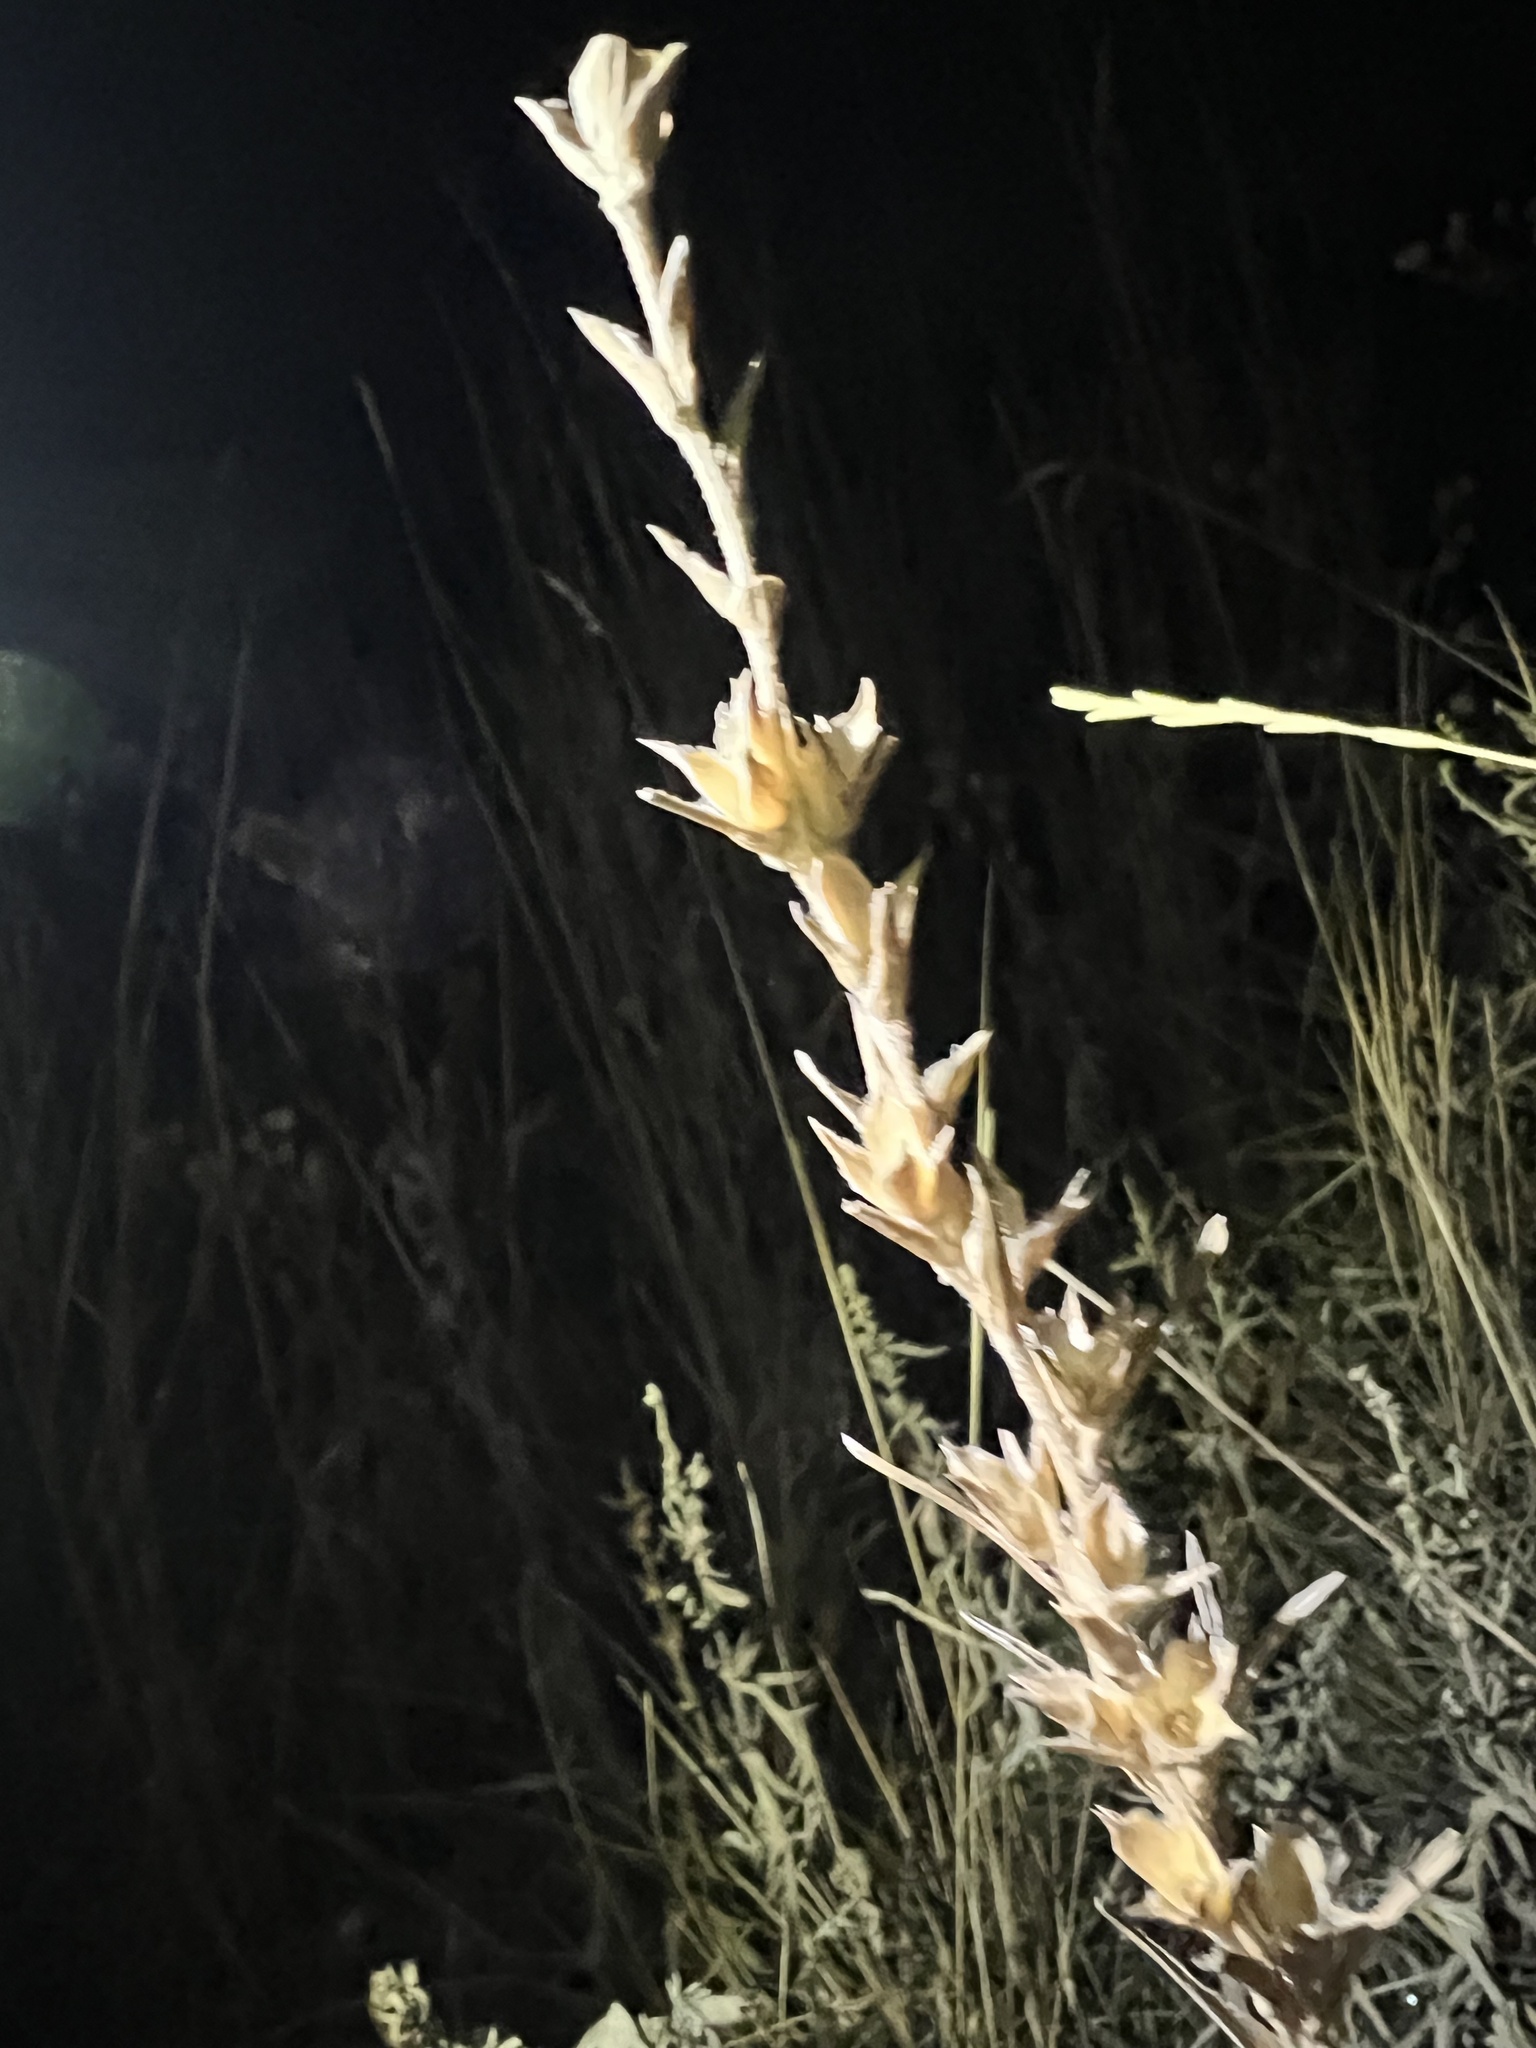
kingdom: Plantae
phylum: Tracheophyta
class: Magnoliopsida
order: Asterales
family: Asteraceae
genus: Liatris
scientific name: Liatris punctata
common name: Dotted gayfeather
